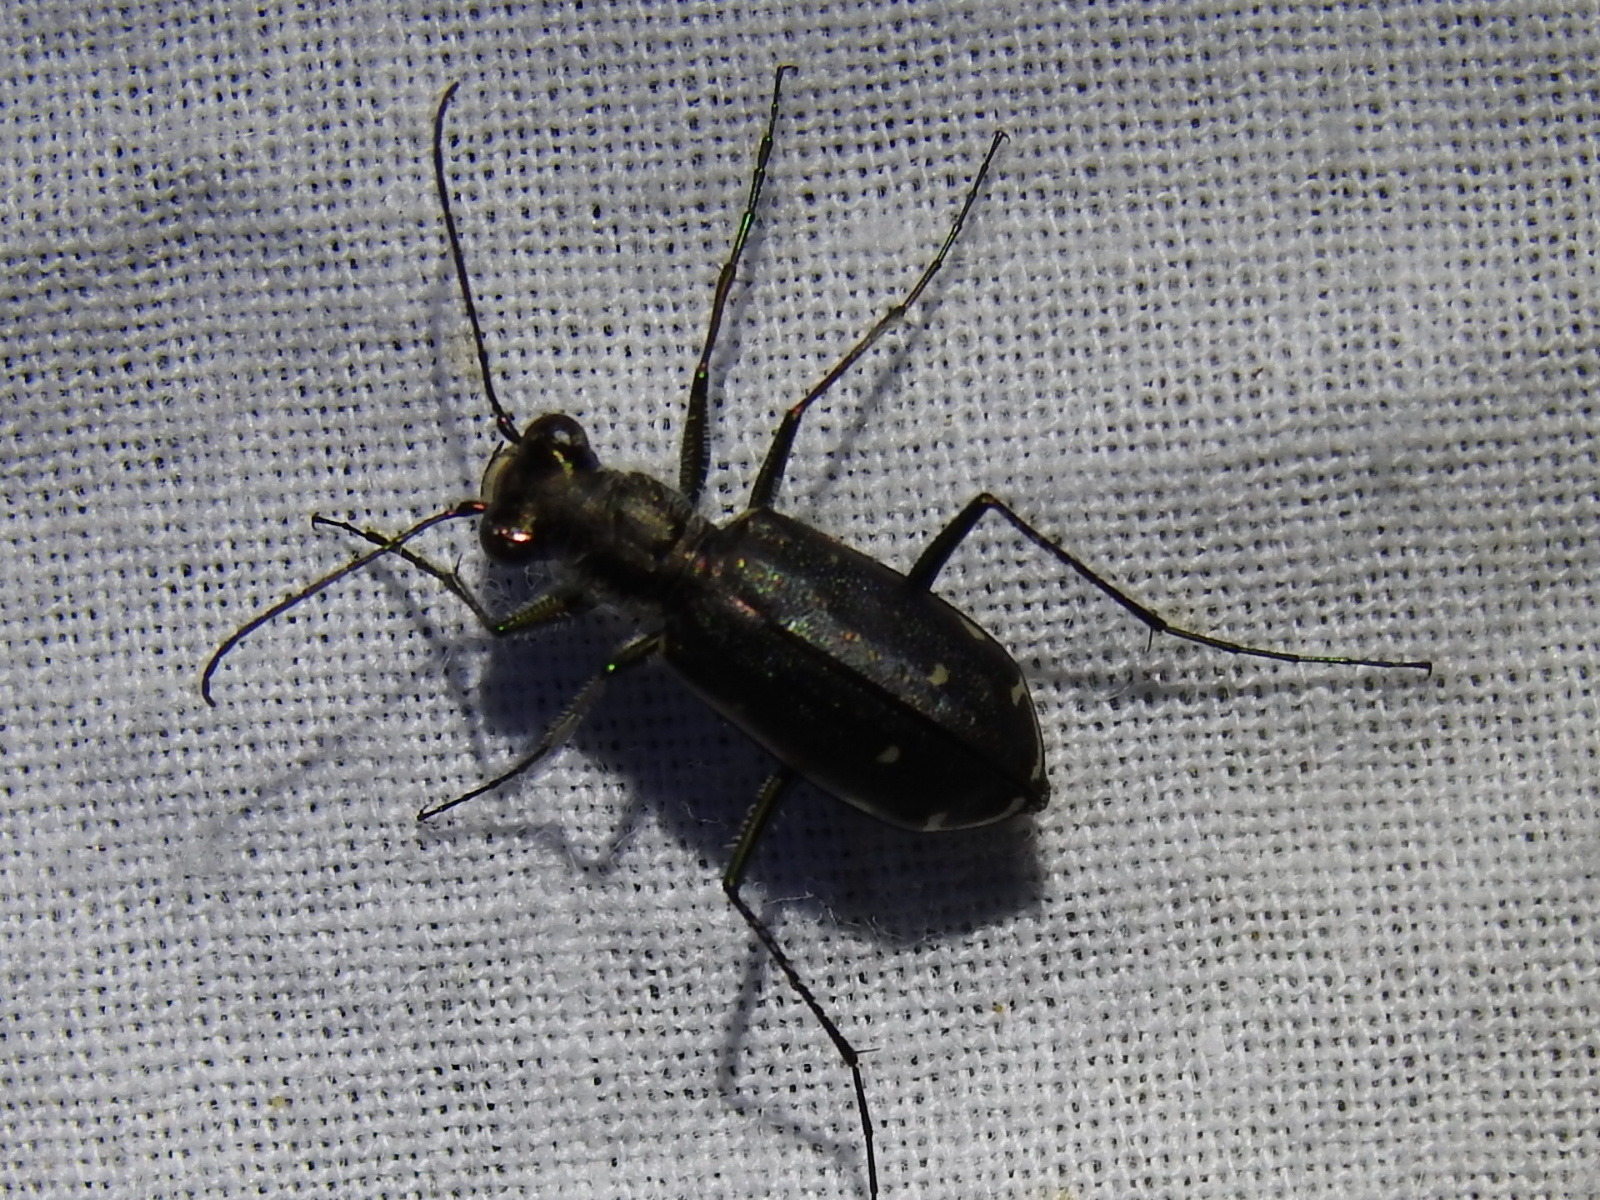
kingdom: Animalia
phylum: Arthropoda
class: Insecta
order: Coleoptera
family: Carabidae
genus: Cicindela
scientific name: Cicindela punctulata
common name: Punctured tiger beetle
